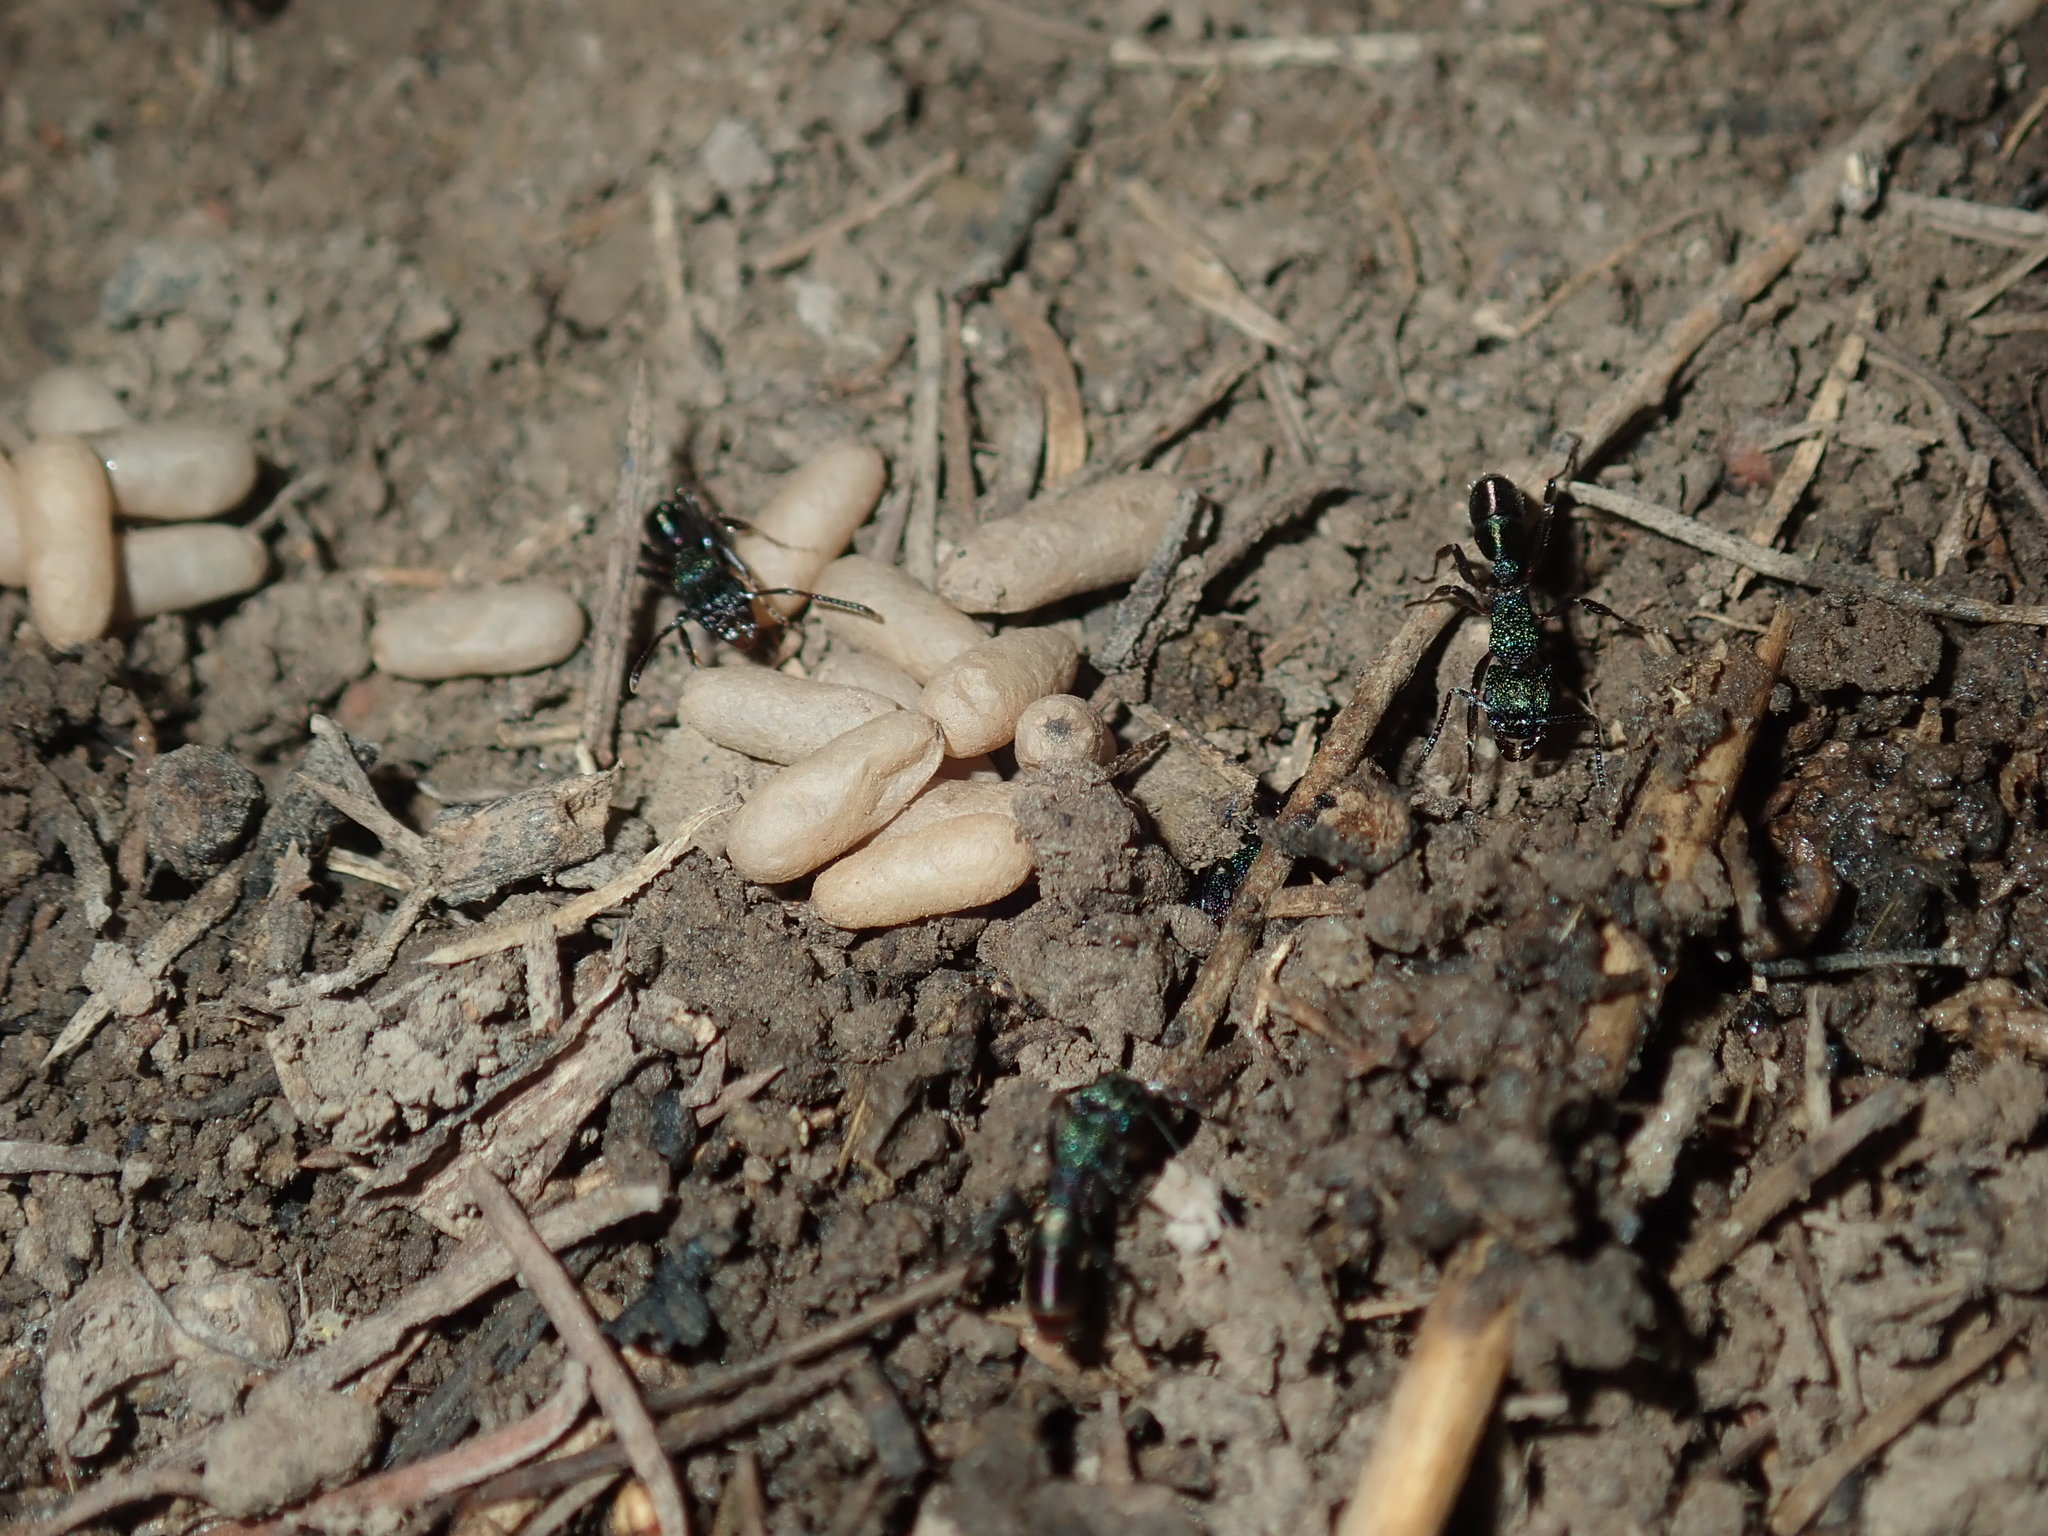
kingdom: Animalia
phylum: Arthropoda
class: Insecta
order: Hymenoptera
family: Formicidae
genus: Rhytidoponera
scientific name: Rhytidoponera metallica
